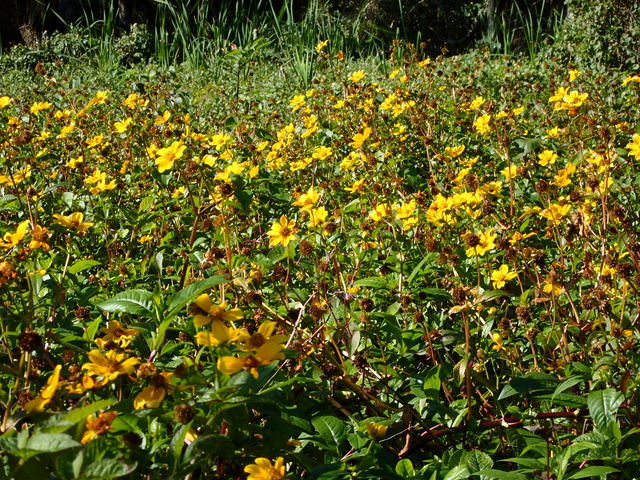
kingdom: Plantae
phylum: Tracheophyta
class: Magnoliopsida
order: Asterales
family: Asteraceae
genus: Bidens
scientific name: Bidens laevis
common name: Larger bur-marigold
